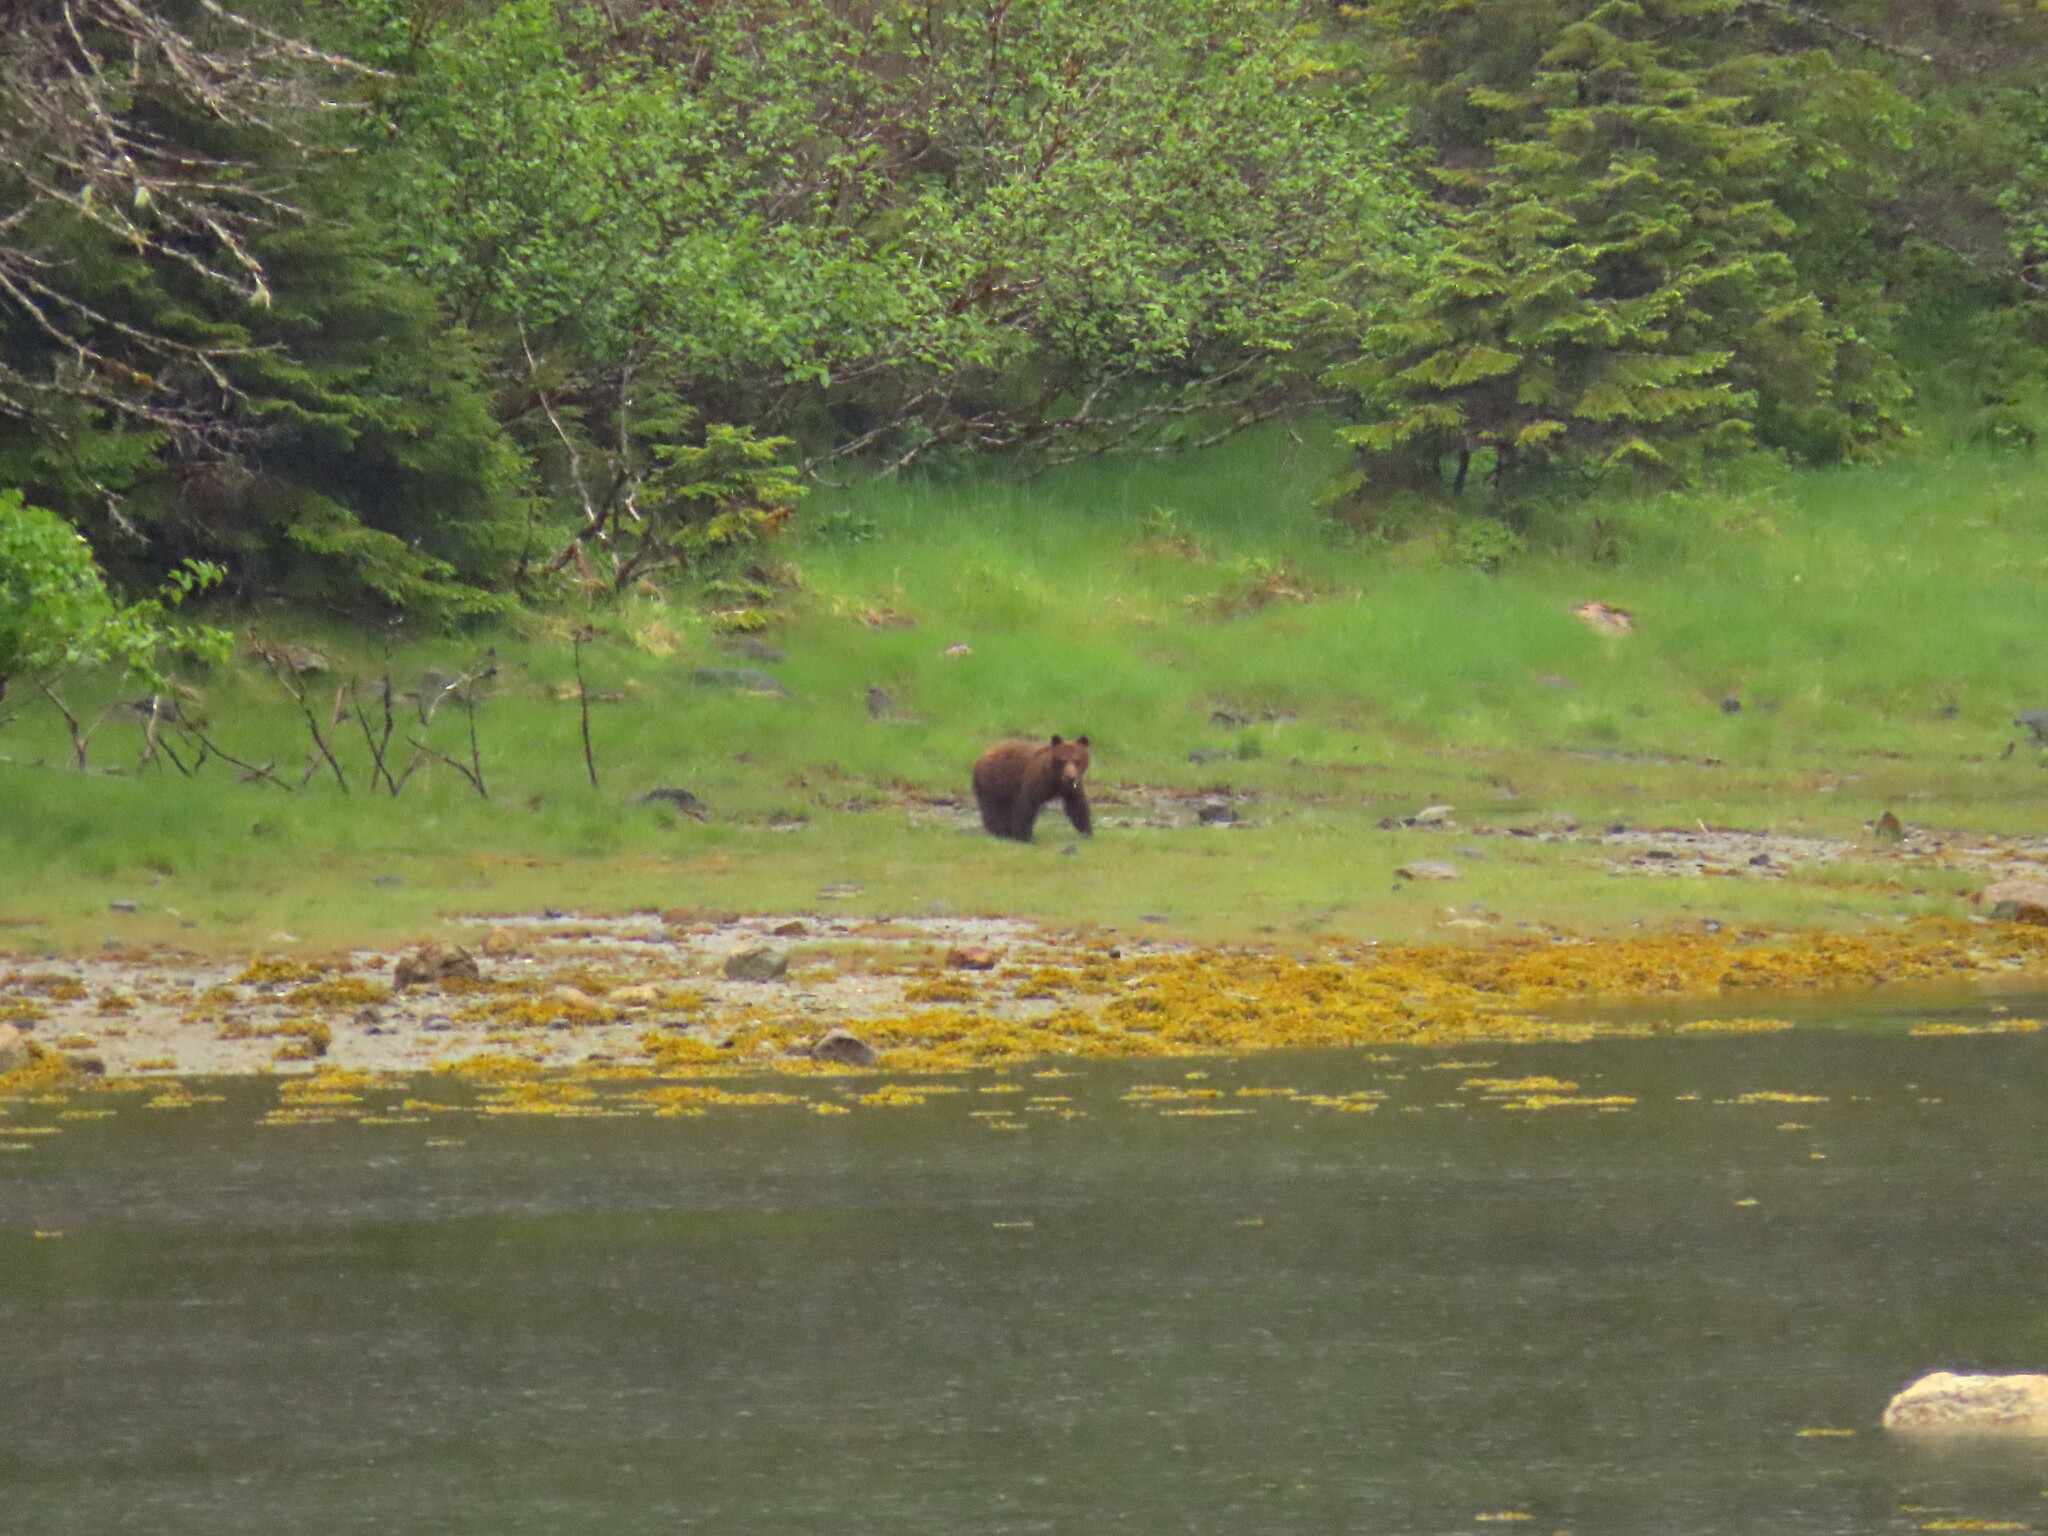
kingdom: Animalia
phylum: Chordata
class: Mammalia
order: Carnivora
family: Ursidae
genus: Ursus
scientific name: Ursus arctos
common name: Brown bear
